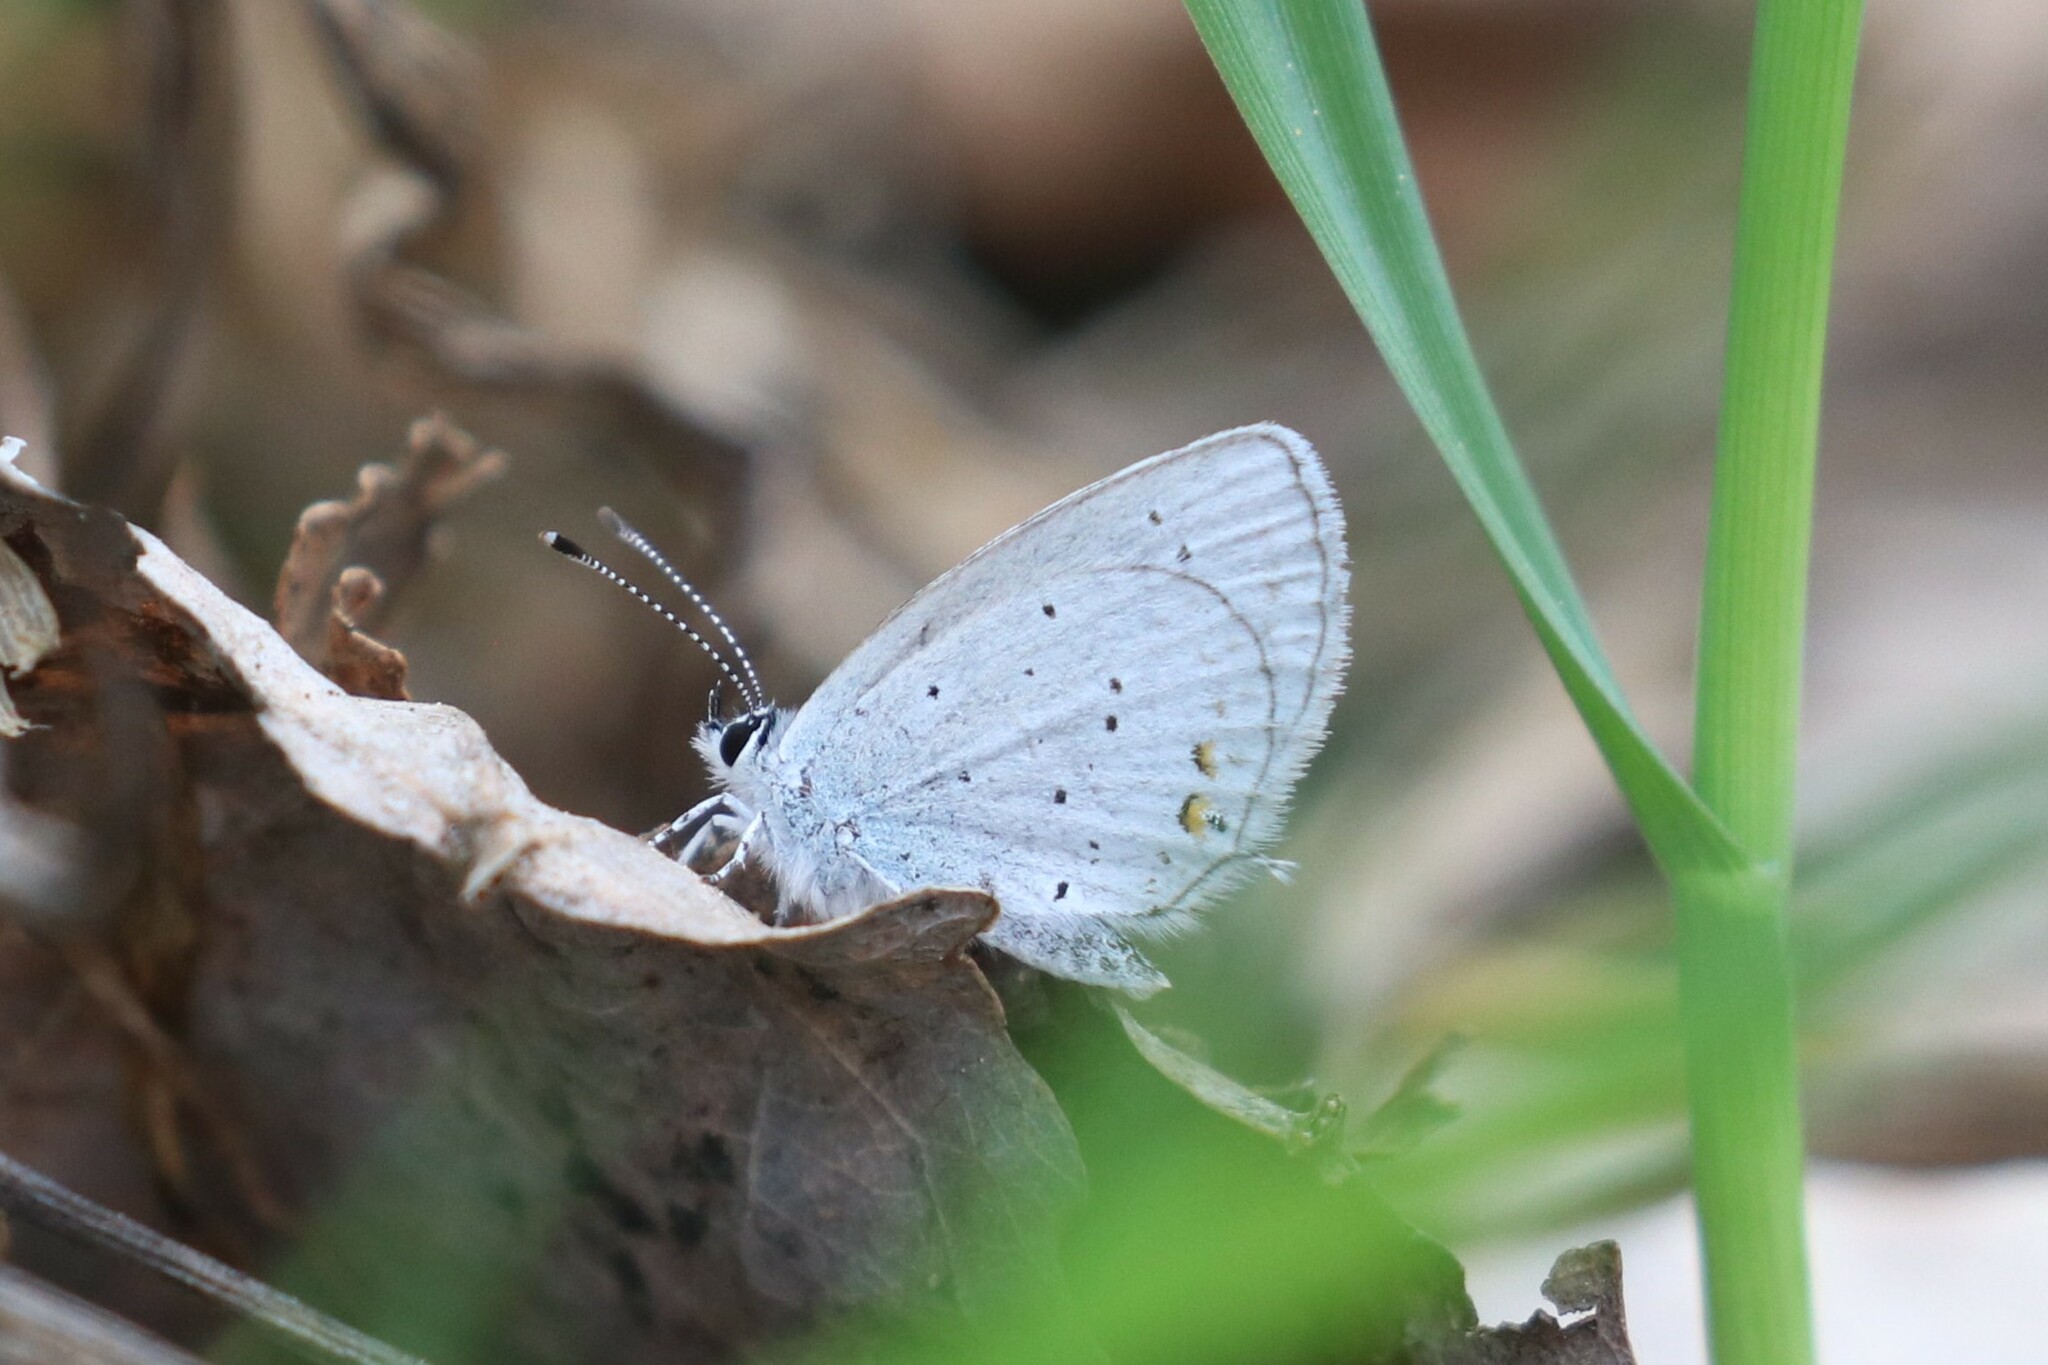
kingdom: Animalia
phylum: Arthropoda
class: Insecta
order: Lepidoptera
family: Lycaenidae
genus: Elkalyce
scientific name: Elkalyce argiades
